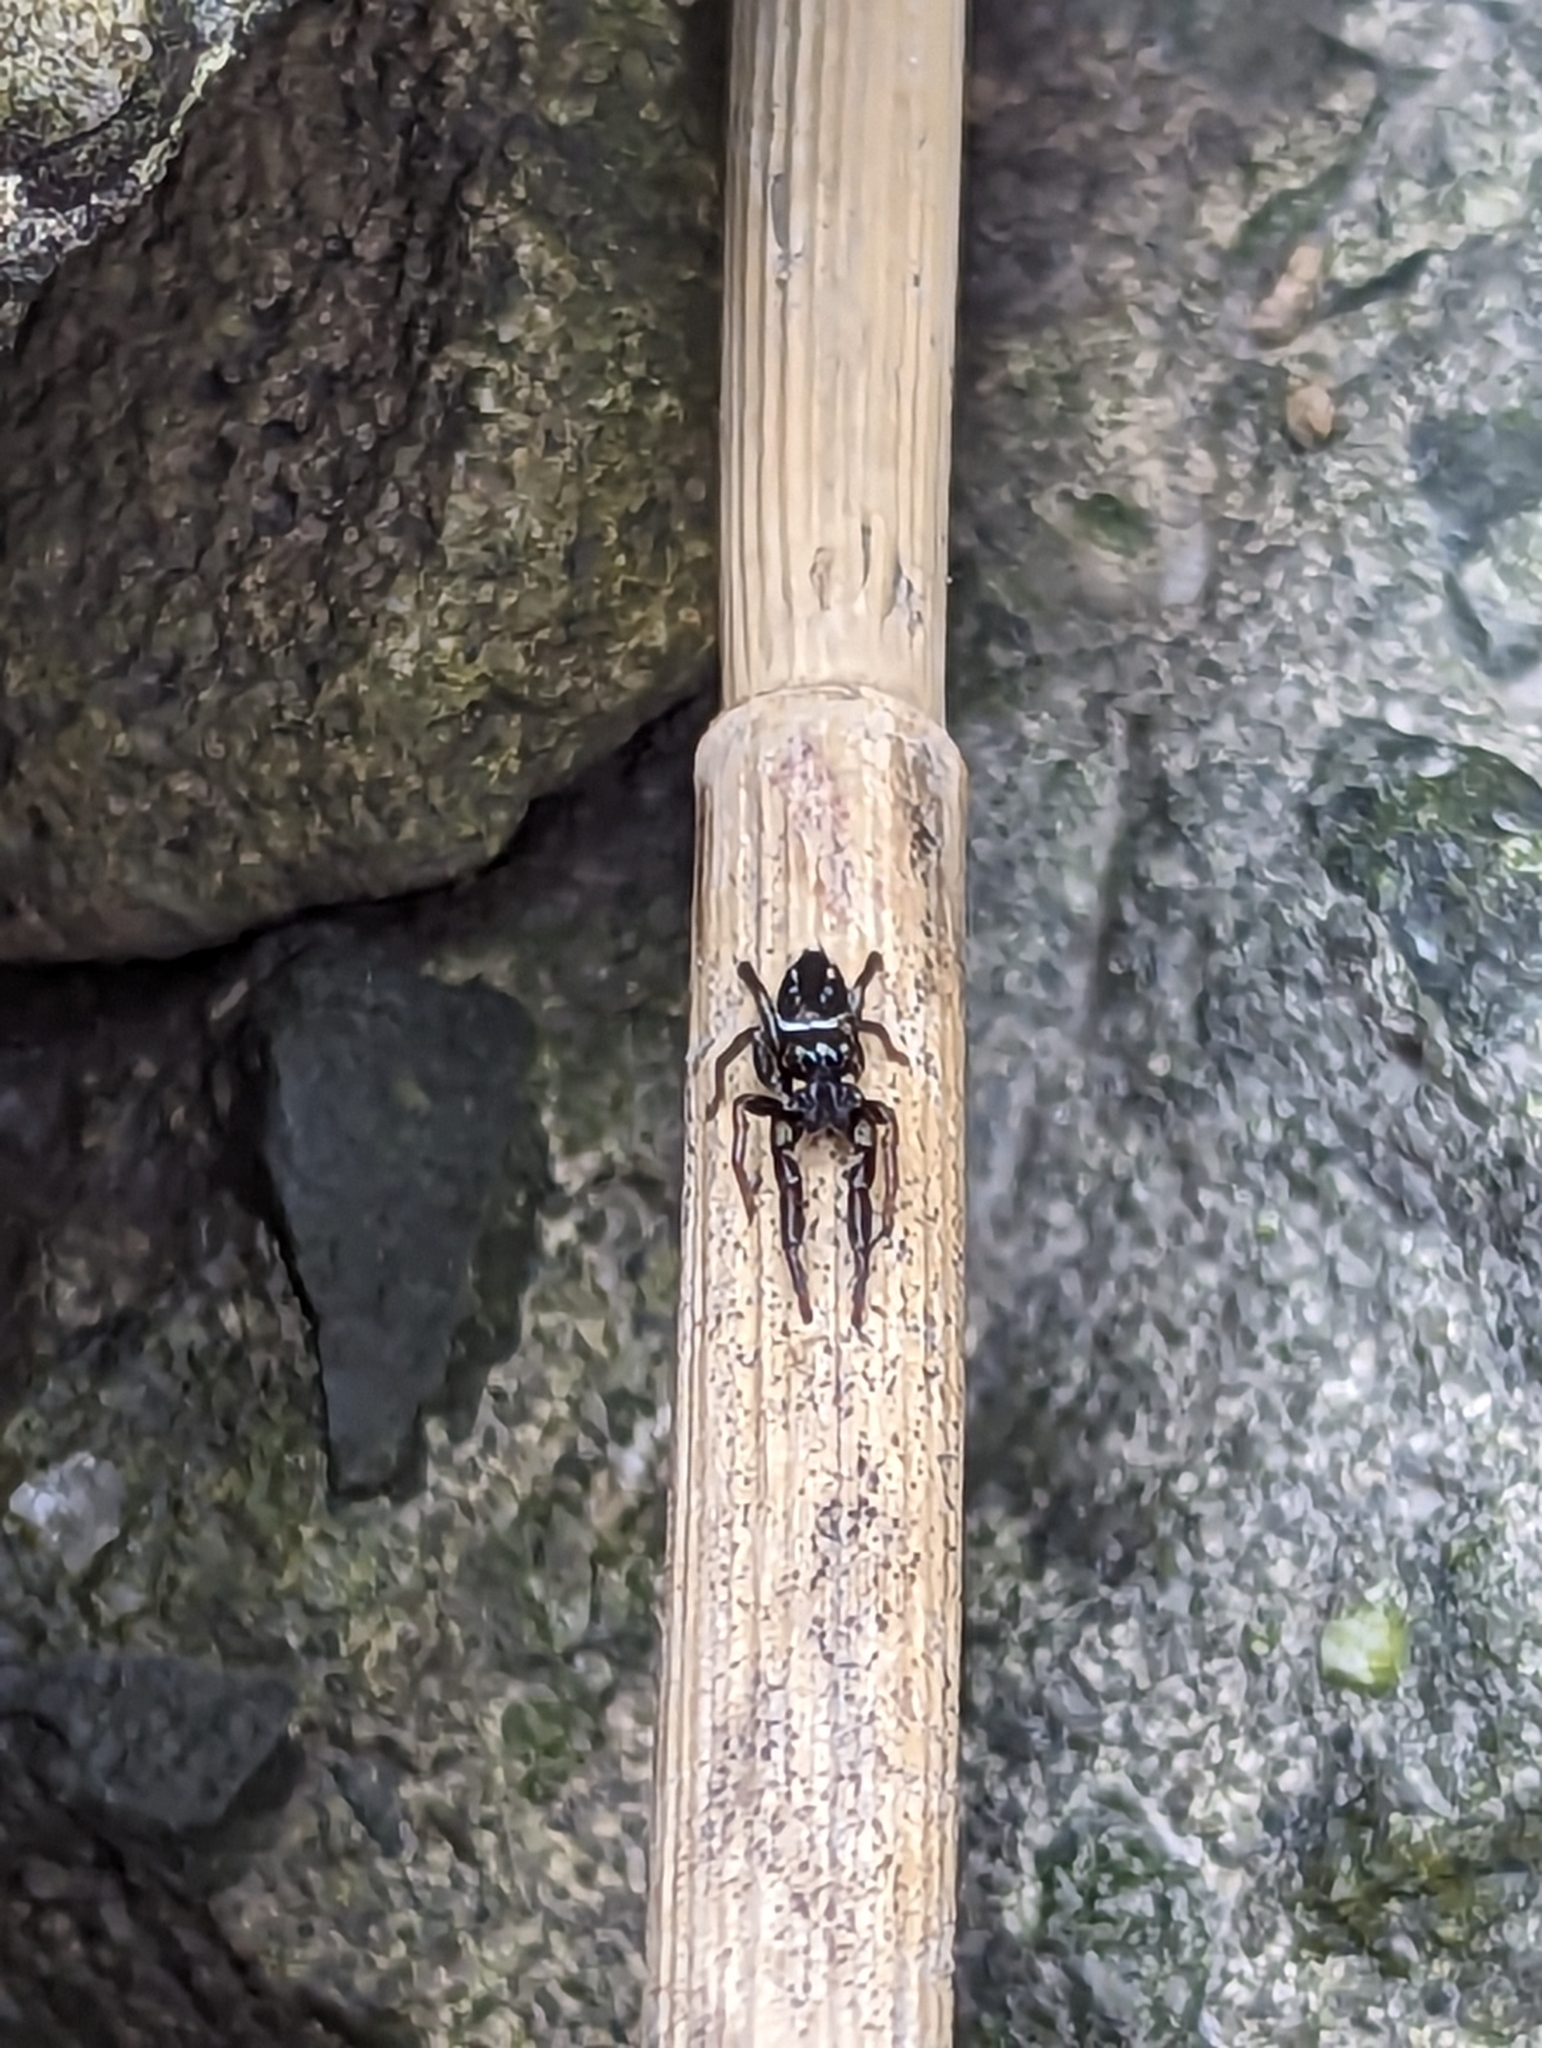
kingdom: Animalia
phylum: Arthropoda
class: Arachnida
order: Araneae
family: Salticidae
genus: Marpissa
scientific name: Marpissa formosa
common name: Short-bellied slender jumping spider
